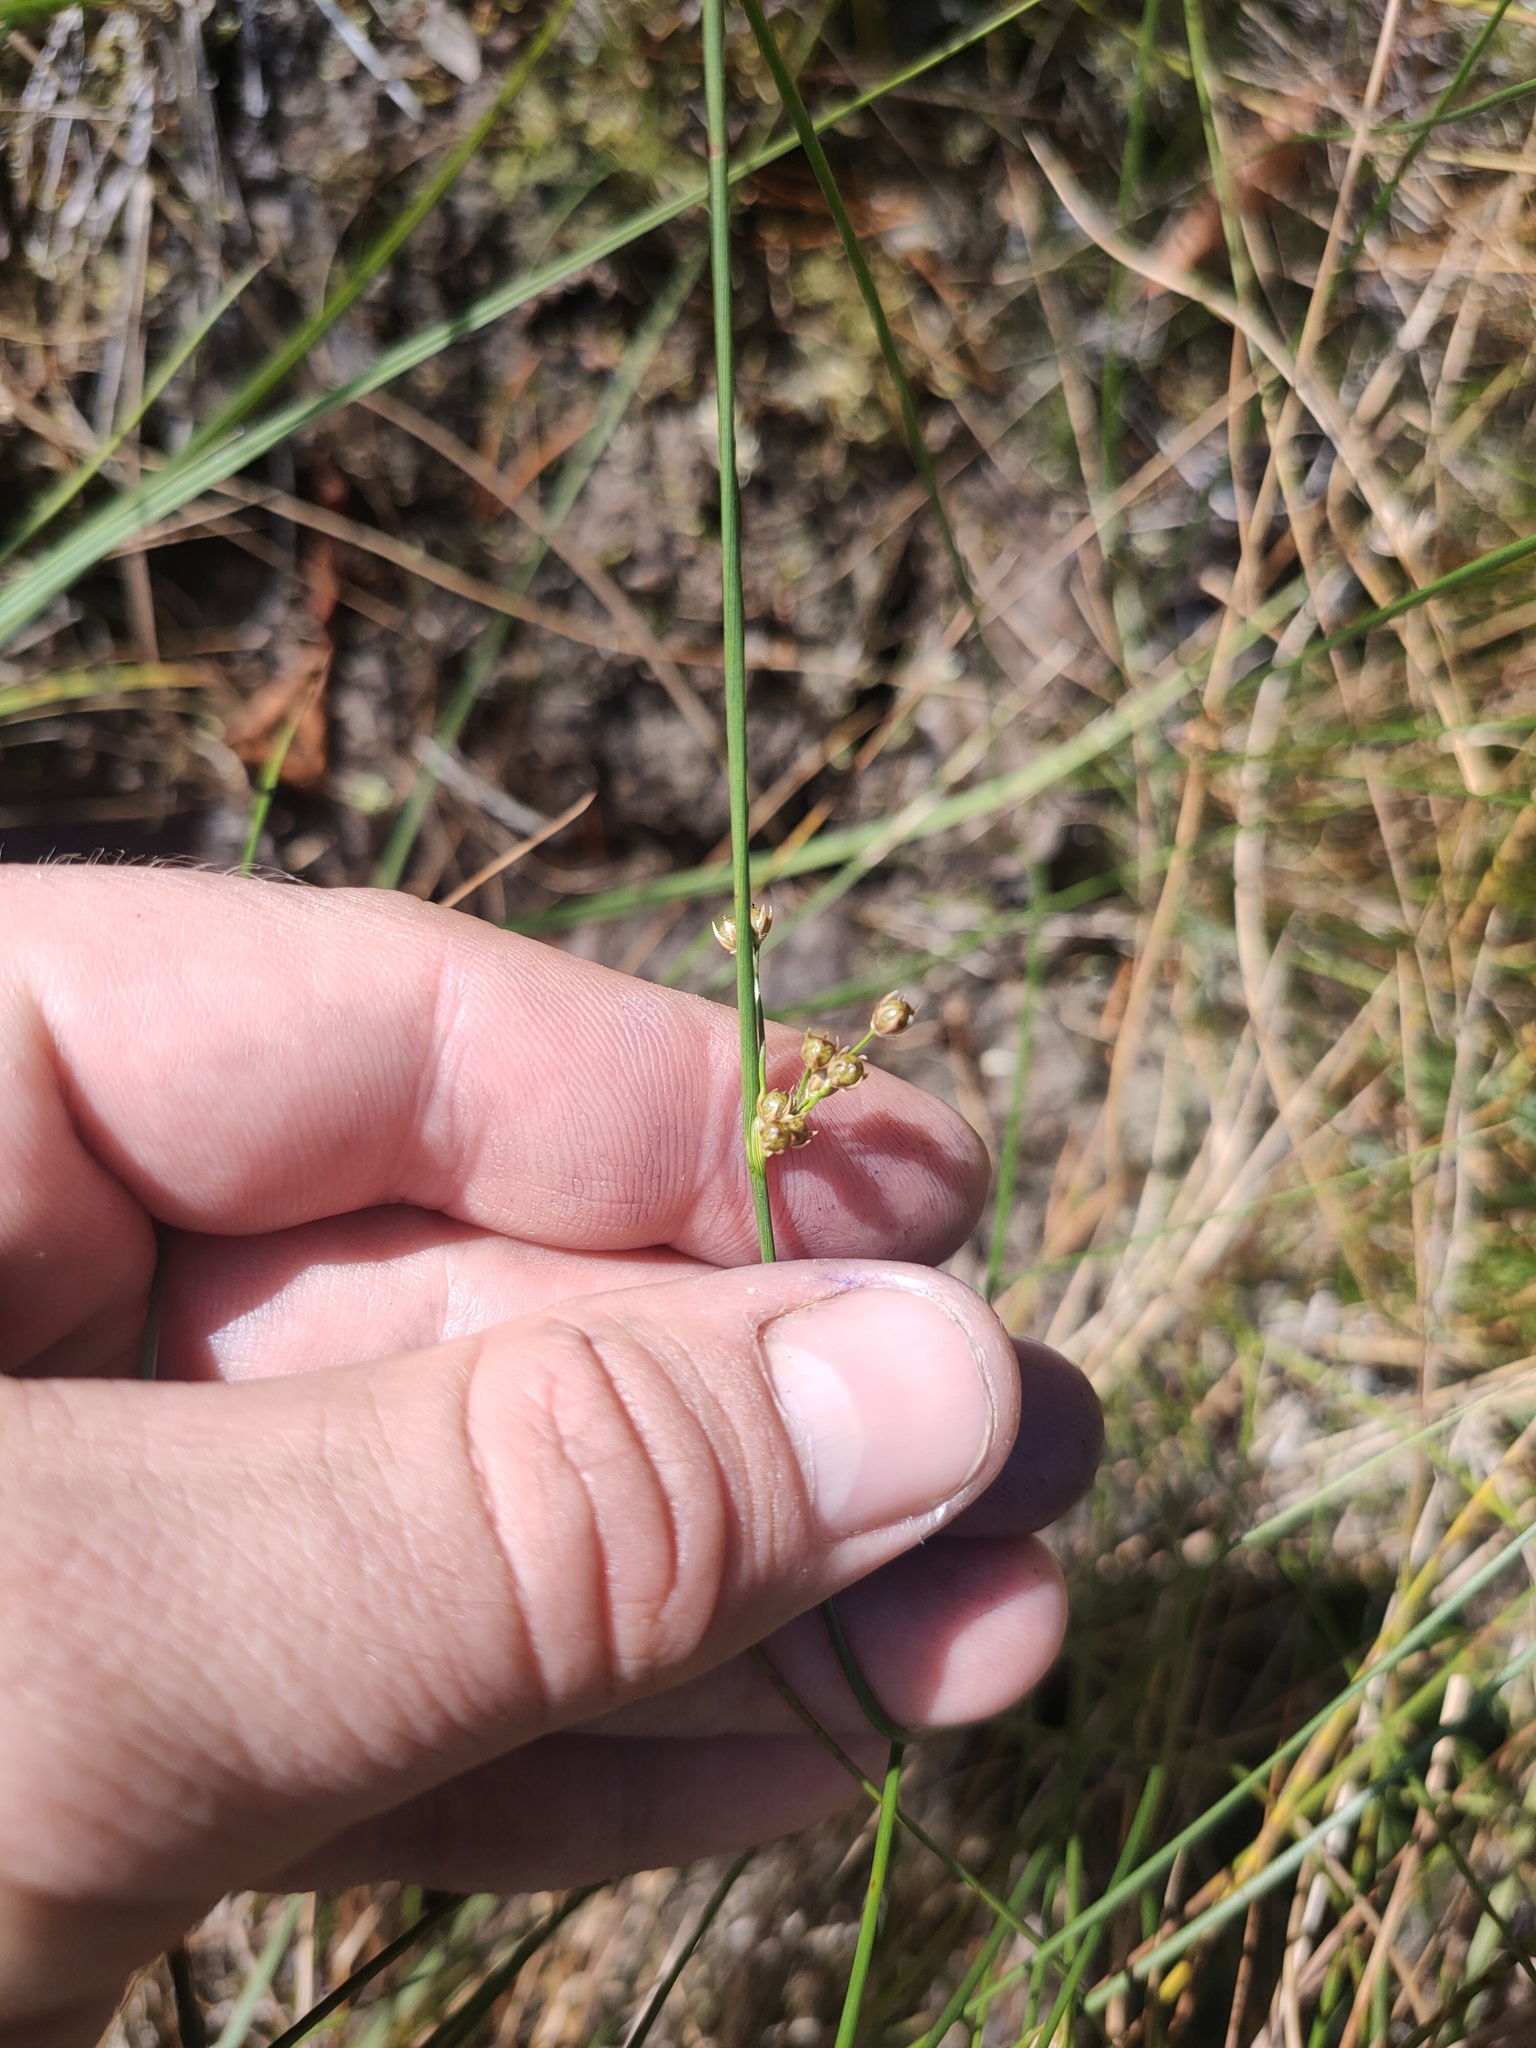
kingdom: Plantae
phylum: Tracheophyta
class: Liliopsida
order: Poales
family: Juncaceae
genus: Juncus
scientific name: Juncus filiformis
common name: Thread rush
